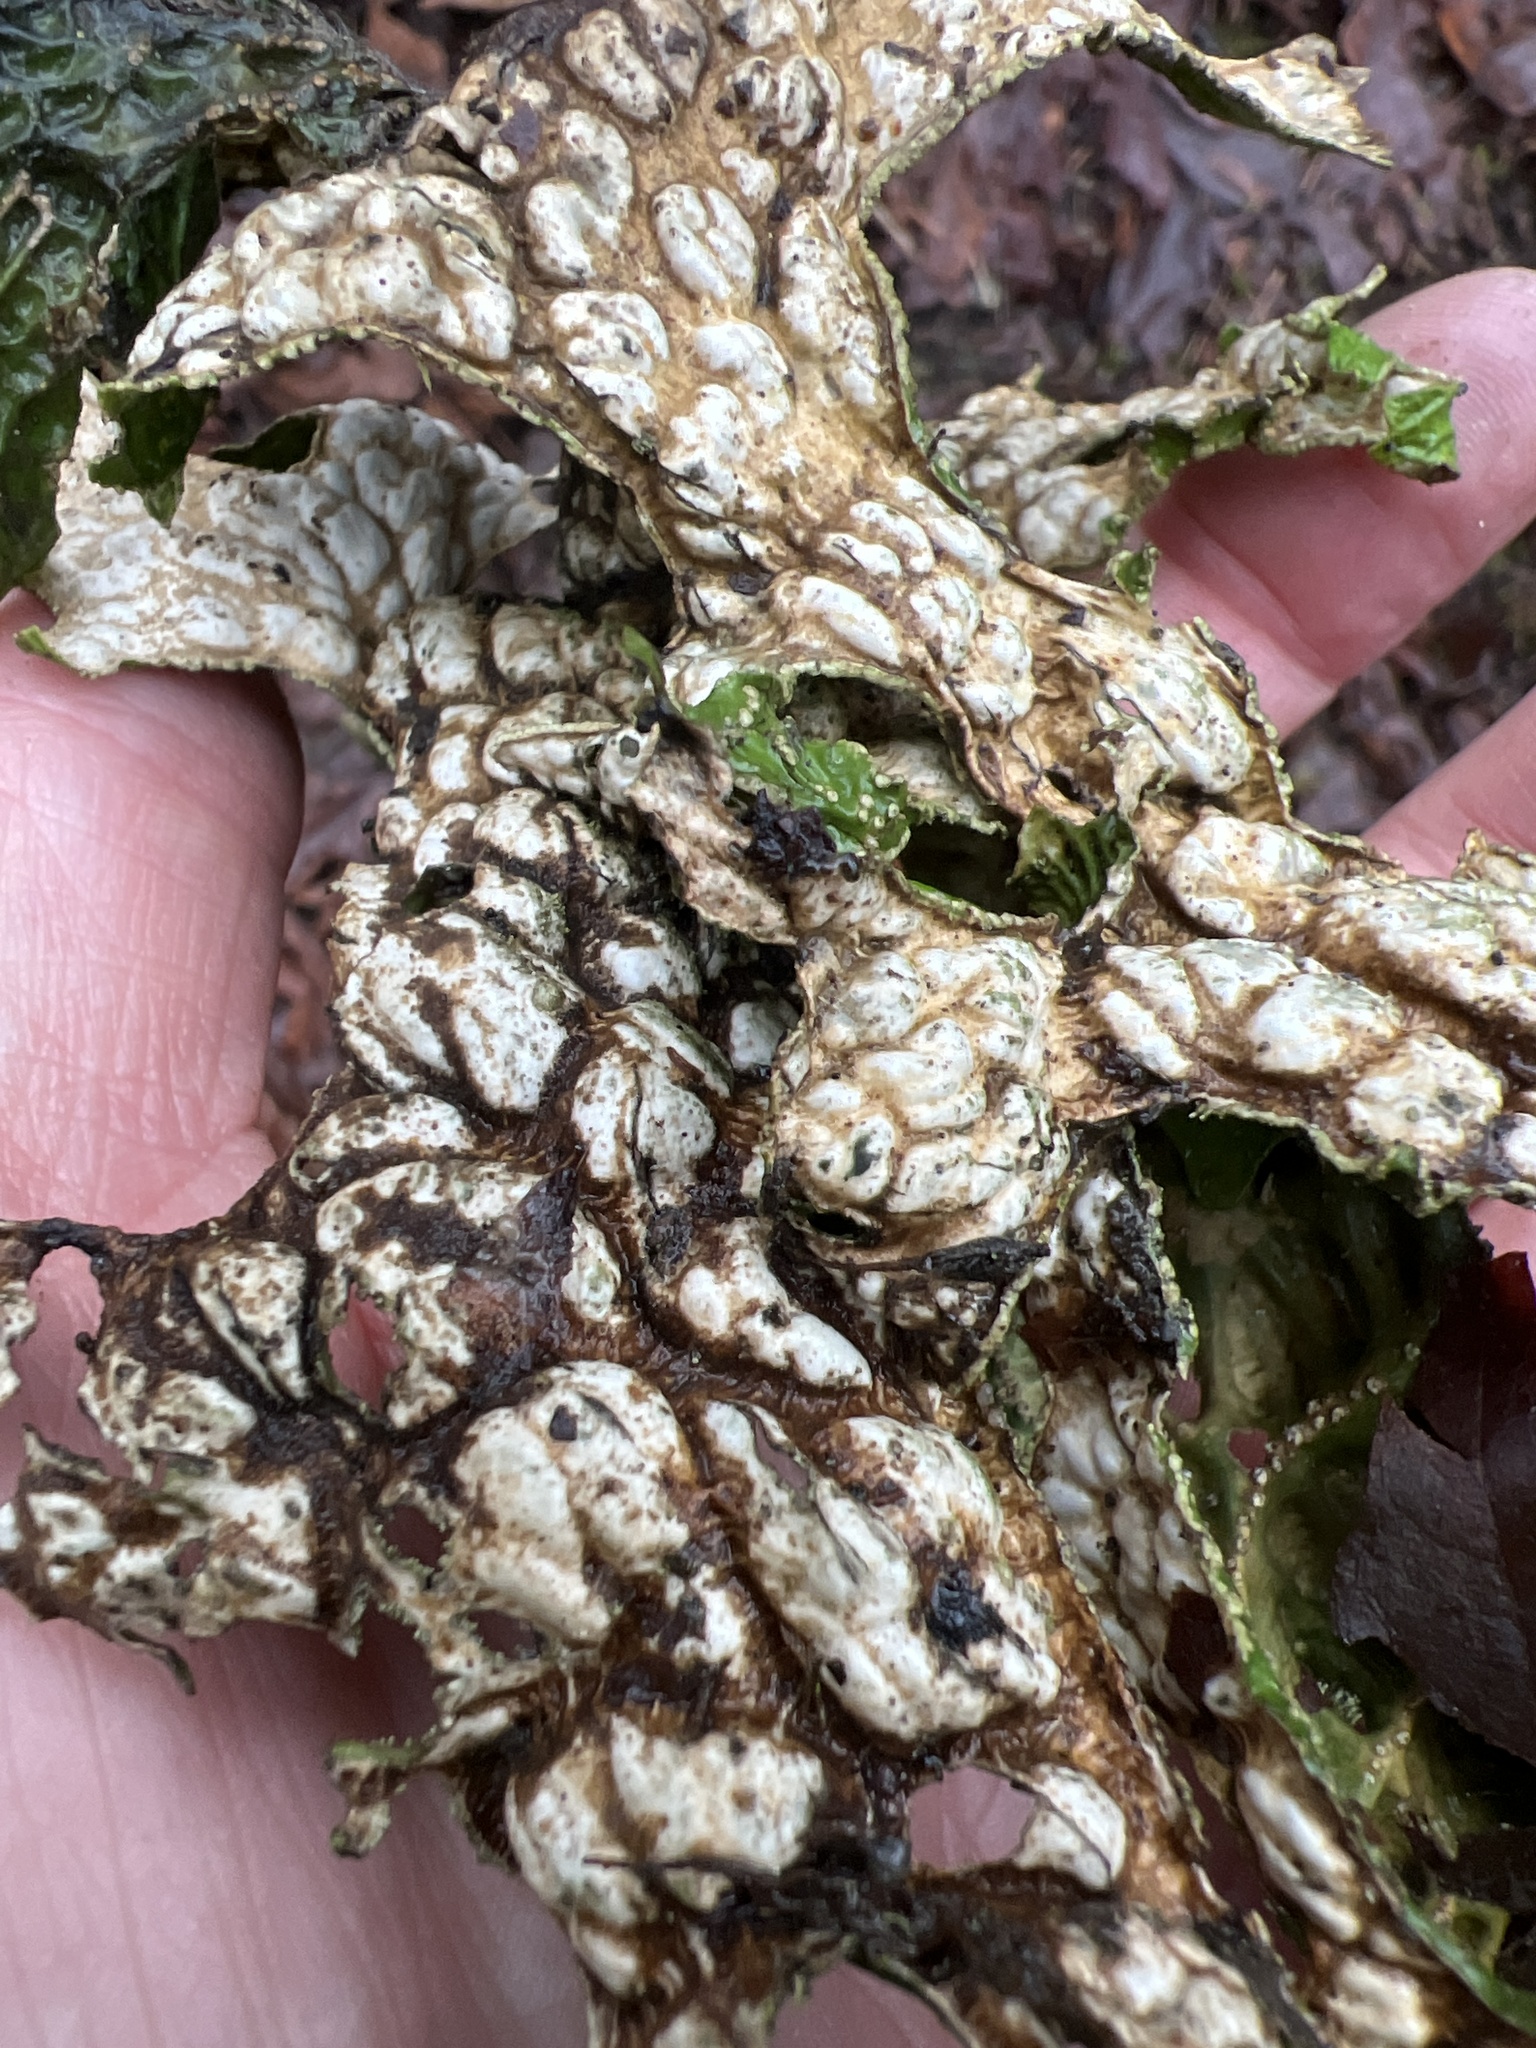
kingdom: Fungi
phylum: Ascomycota
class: Lecanoromycetes
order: Peltigerales
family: Lobariaceae
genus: Lobaria
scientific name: Lobaria pulmonaria
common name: Lungwort
